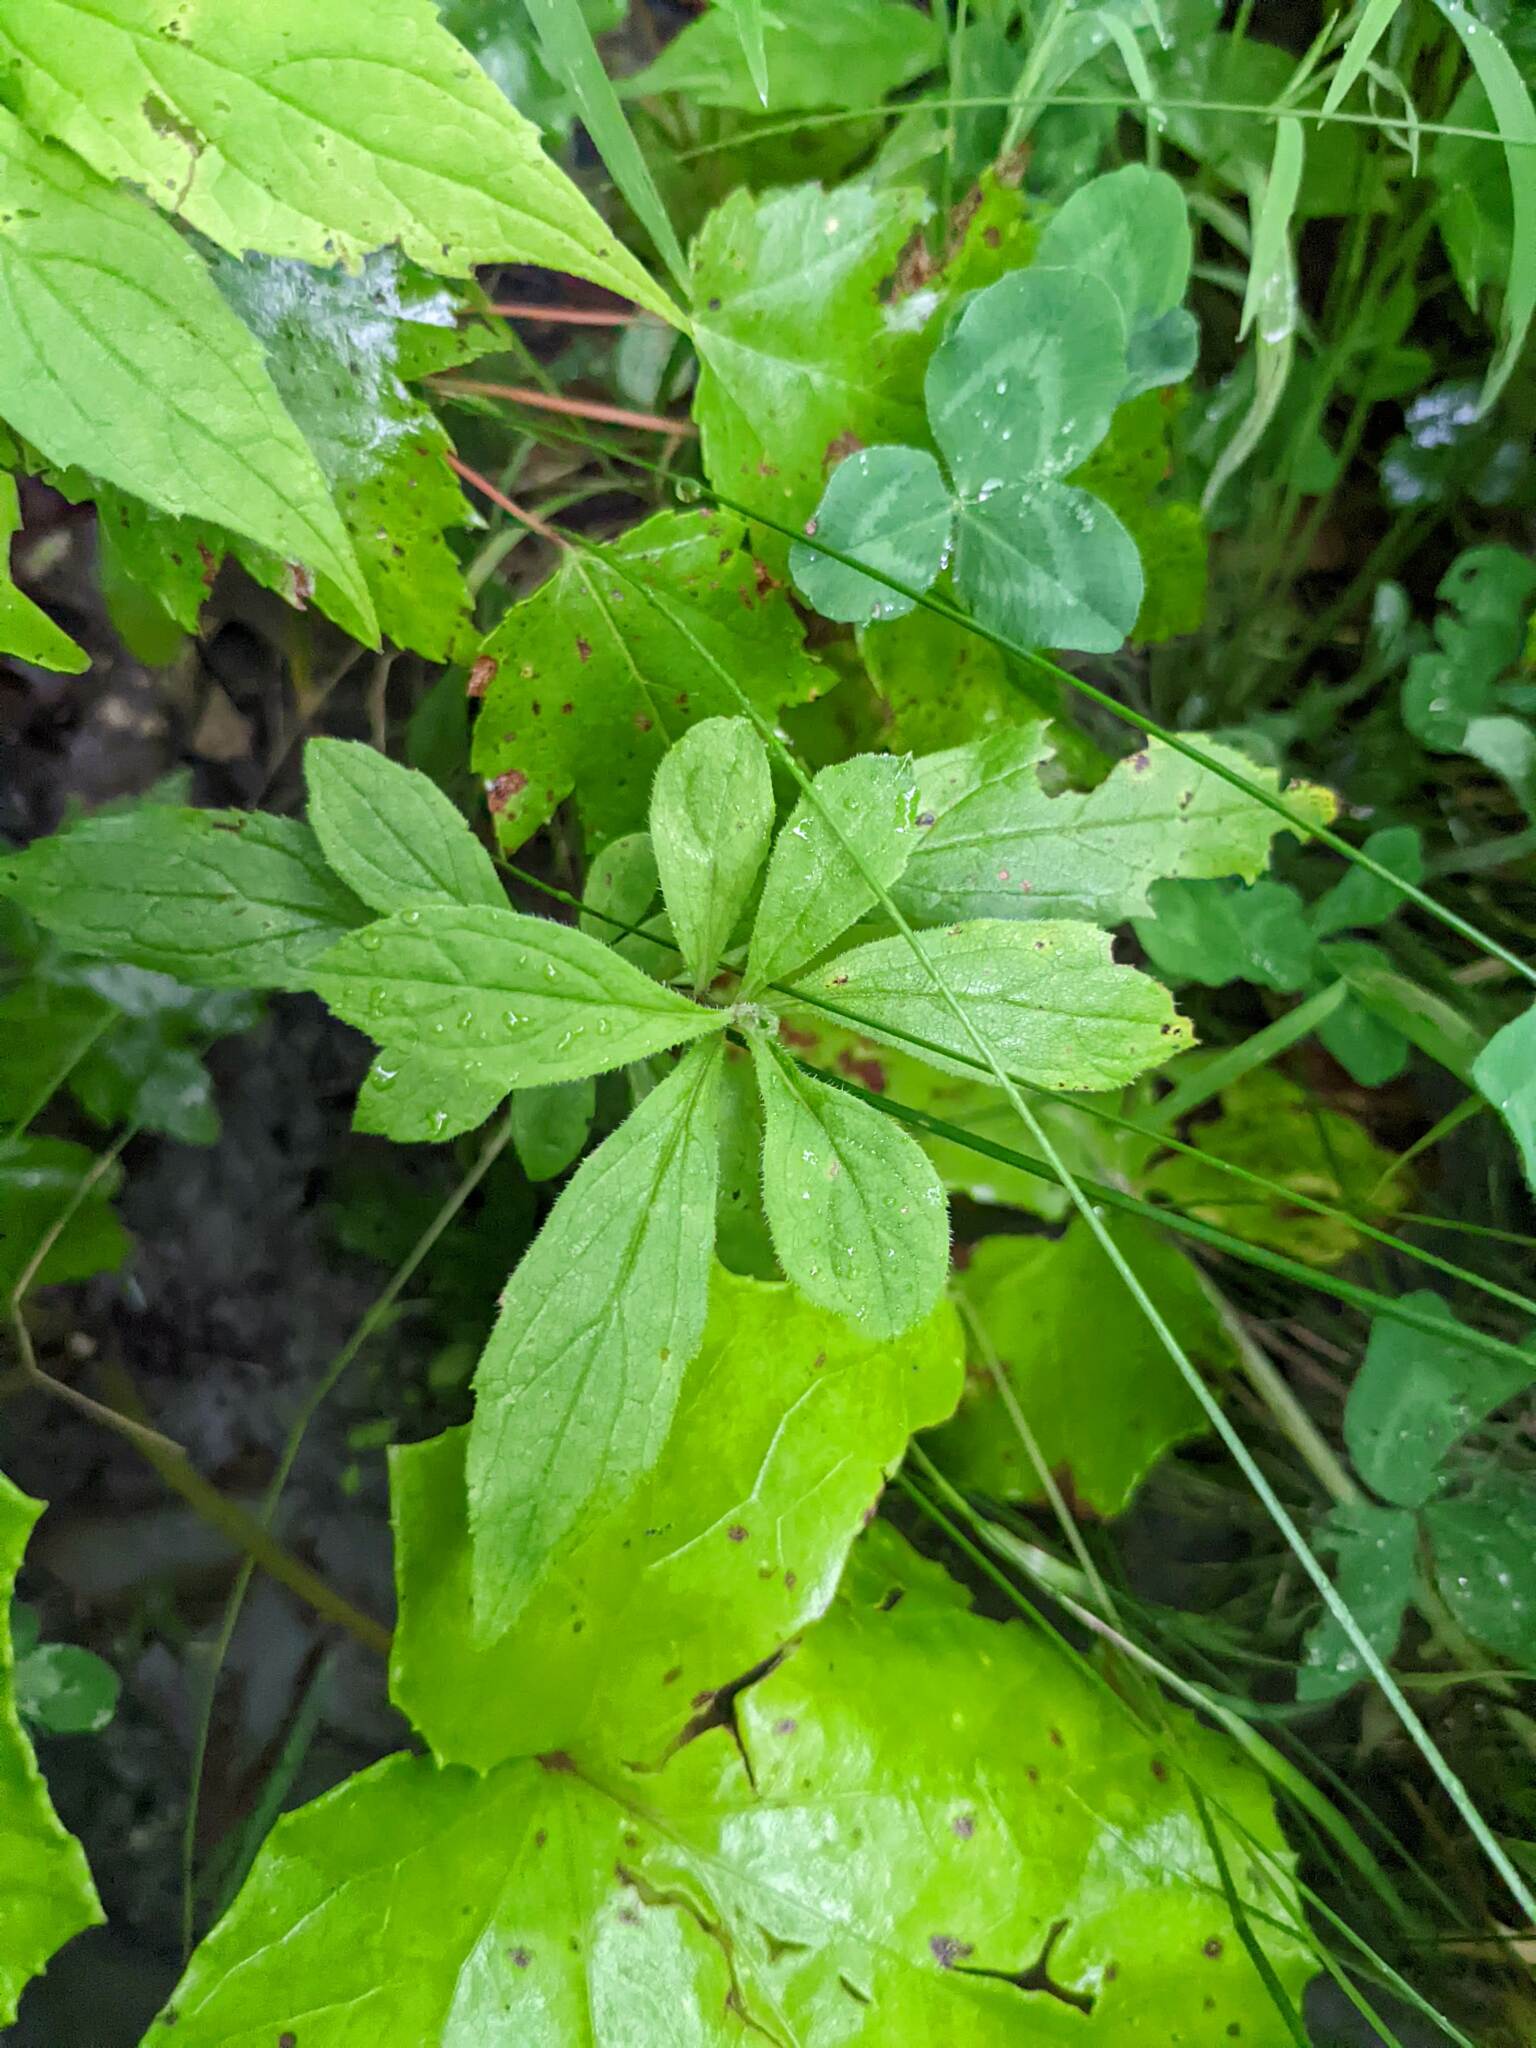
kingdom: Plantae
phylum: Tracheophyta
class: Magnoliopsida
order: Asterales
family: Asteraceae
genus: Oclemena
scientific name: Oclemena acuminata
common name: Mountain aster
